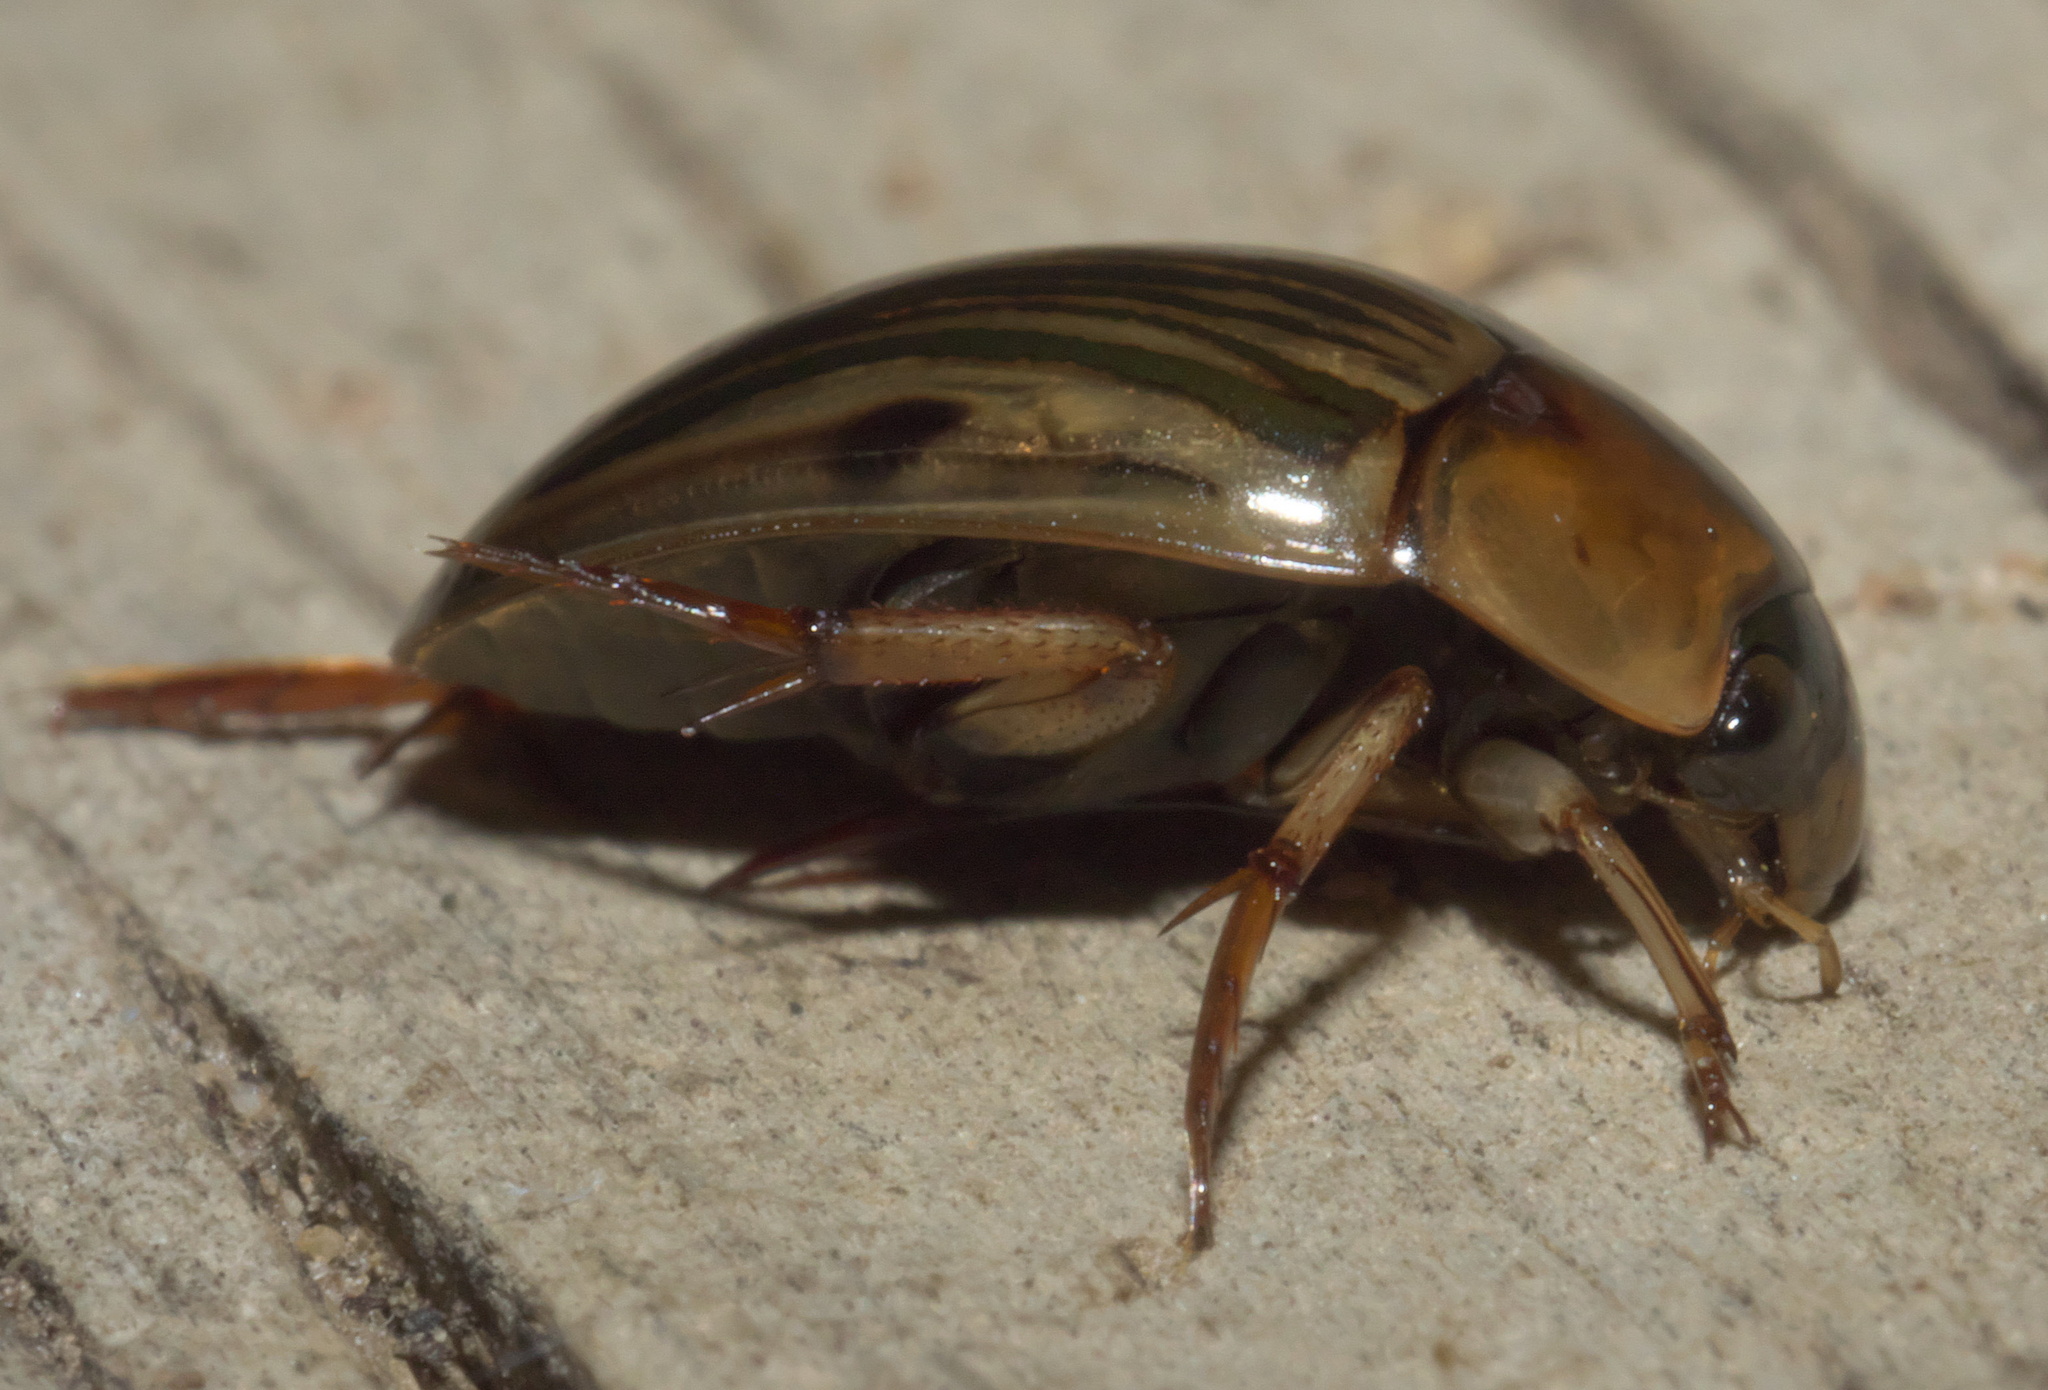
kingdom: Animalia
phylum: Arthropoda
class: Insecta
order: Coleoptera
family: Hydrophilidae
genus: Tropisternus
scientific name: Tropisternus collaris
